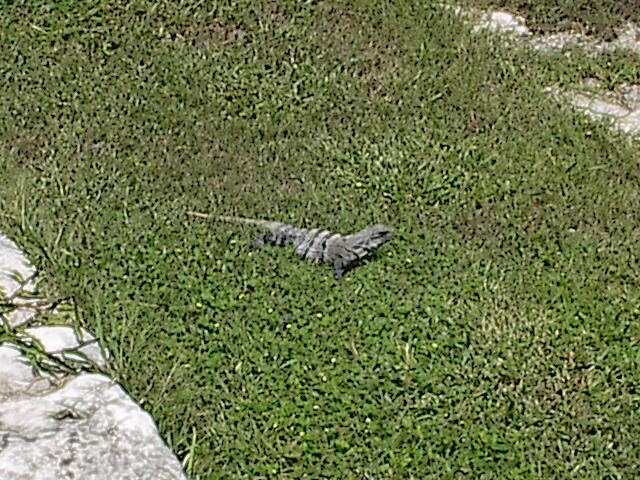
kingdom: Animalia
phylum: Chordata
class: Squamata
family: Iguanidae
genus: Ctenosaura
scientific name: Ctenosaura similis
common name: Black spiny-tailed iguana
